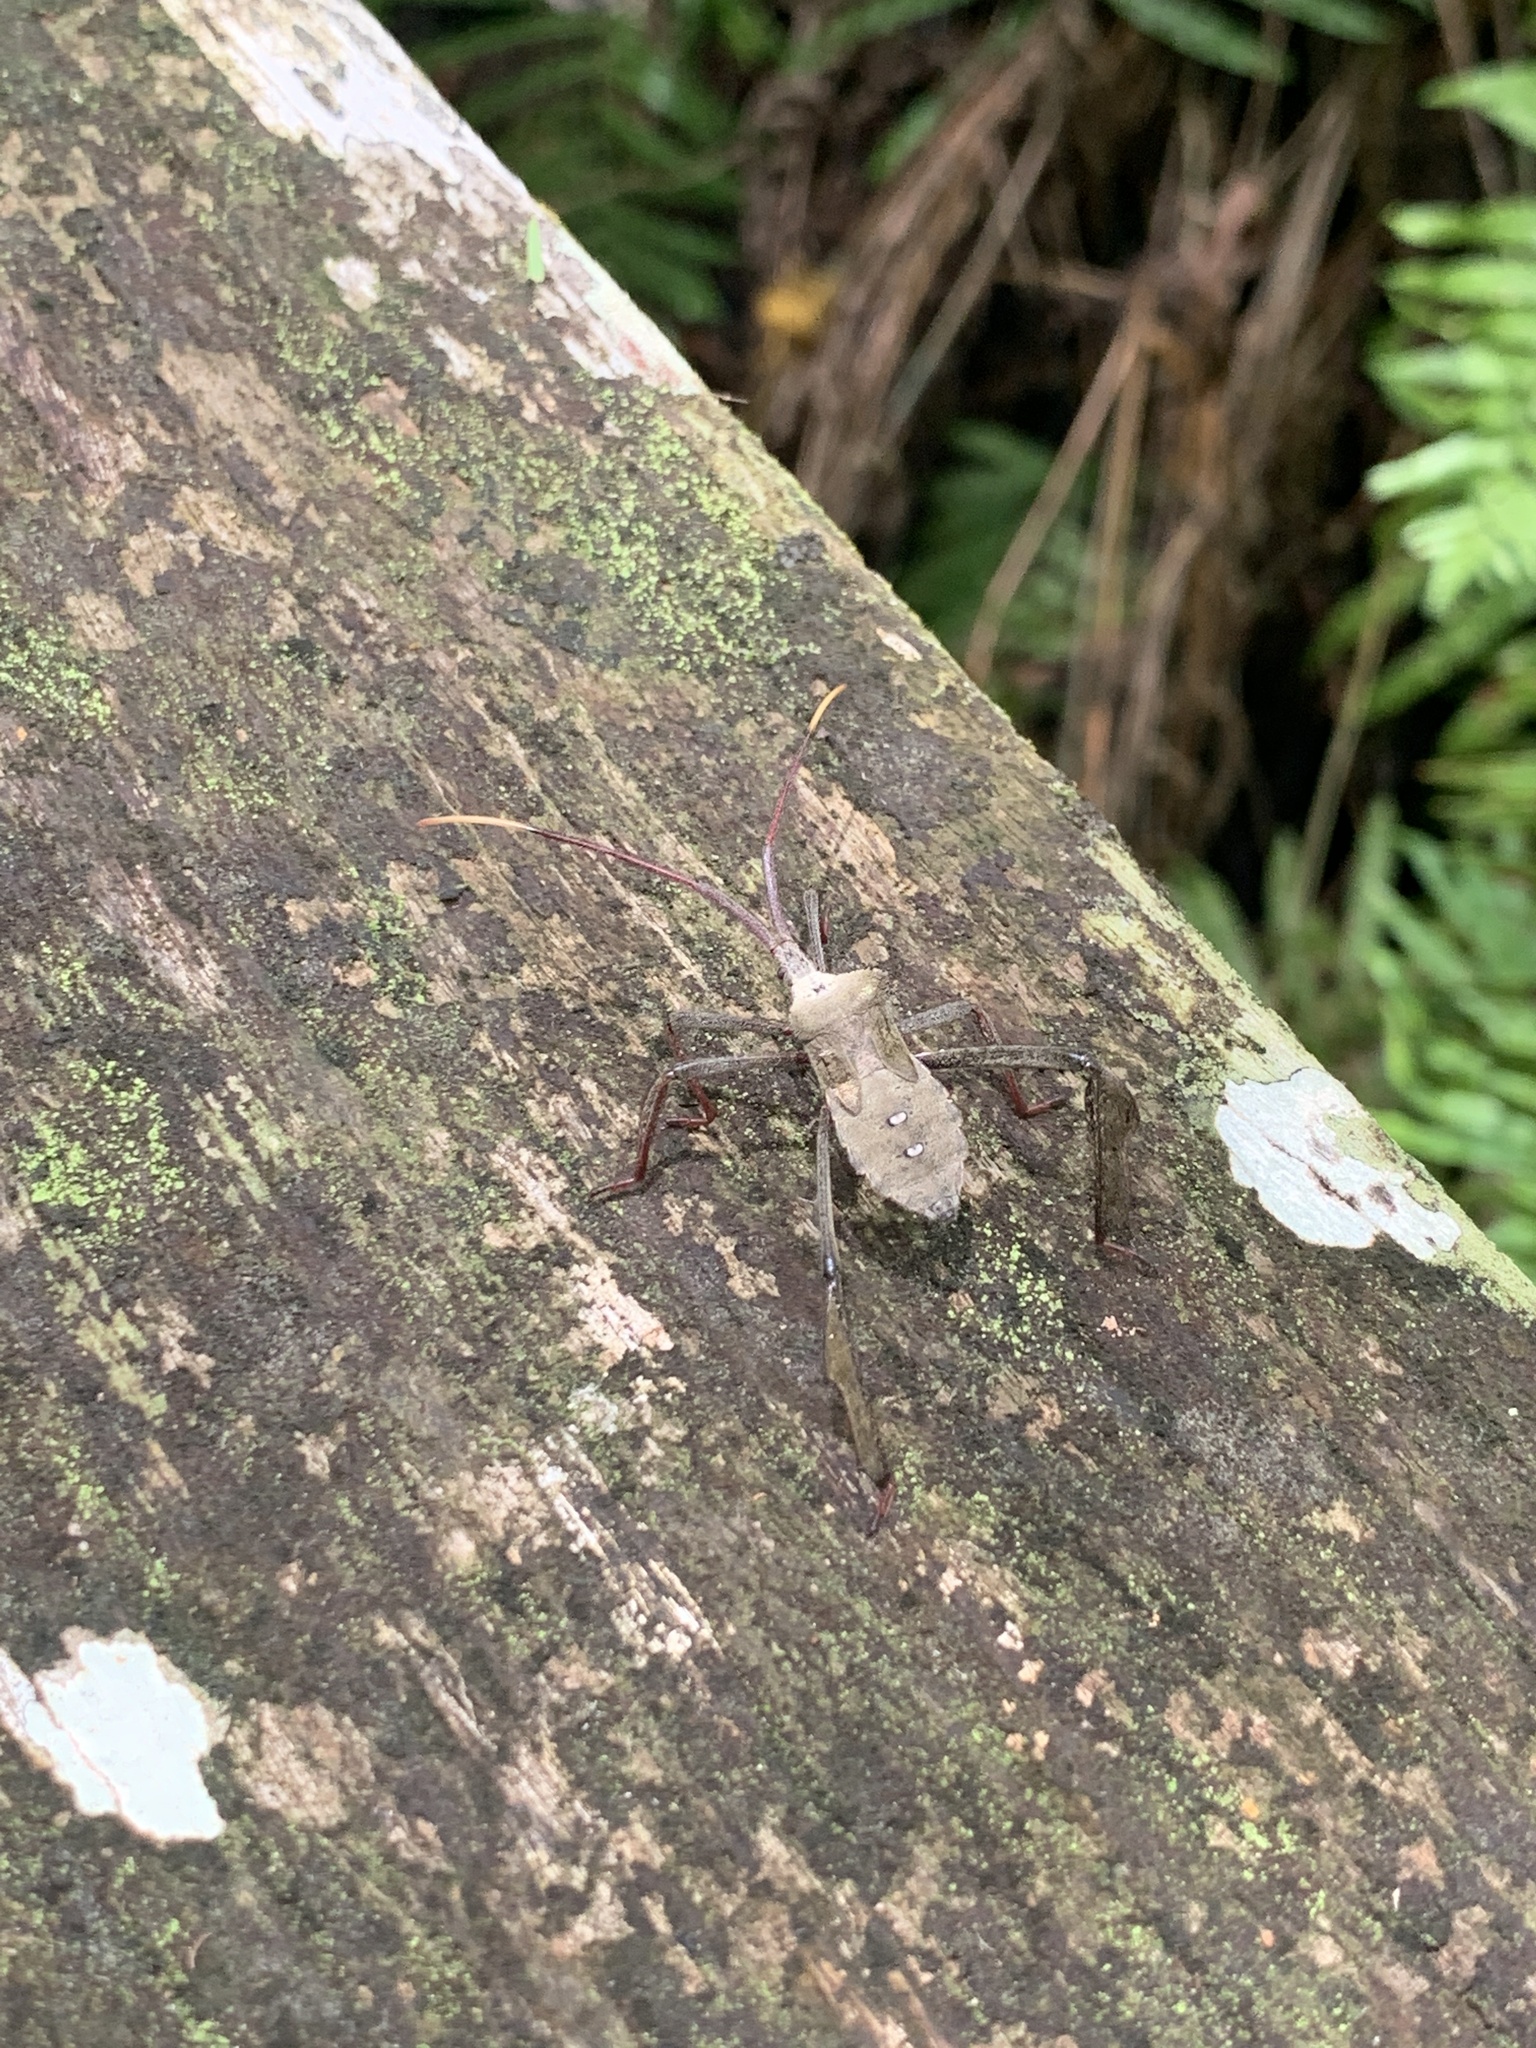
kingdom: Animalia
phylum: Arthropoda
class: Insecta
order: Hemiptera
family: Coreidae
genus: Acanthocephala
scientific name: Acanthocephala declivis
